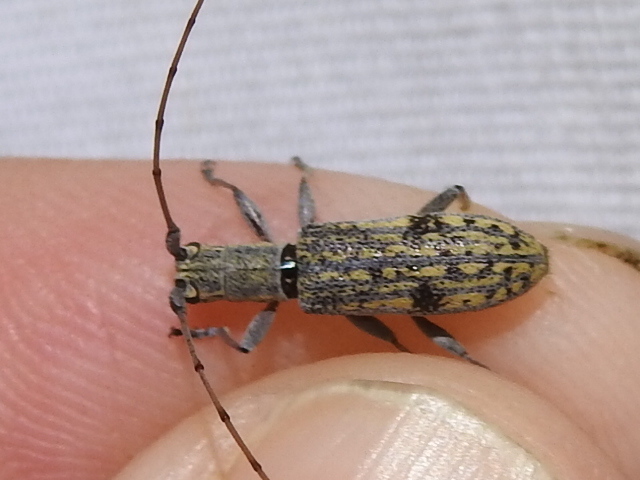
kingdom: Animalia
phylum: Arthropoda
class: Insecta
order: Coleoptera
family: Cerambycidae
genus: Dorcaschema
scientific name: Dorcaschema alternatum
